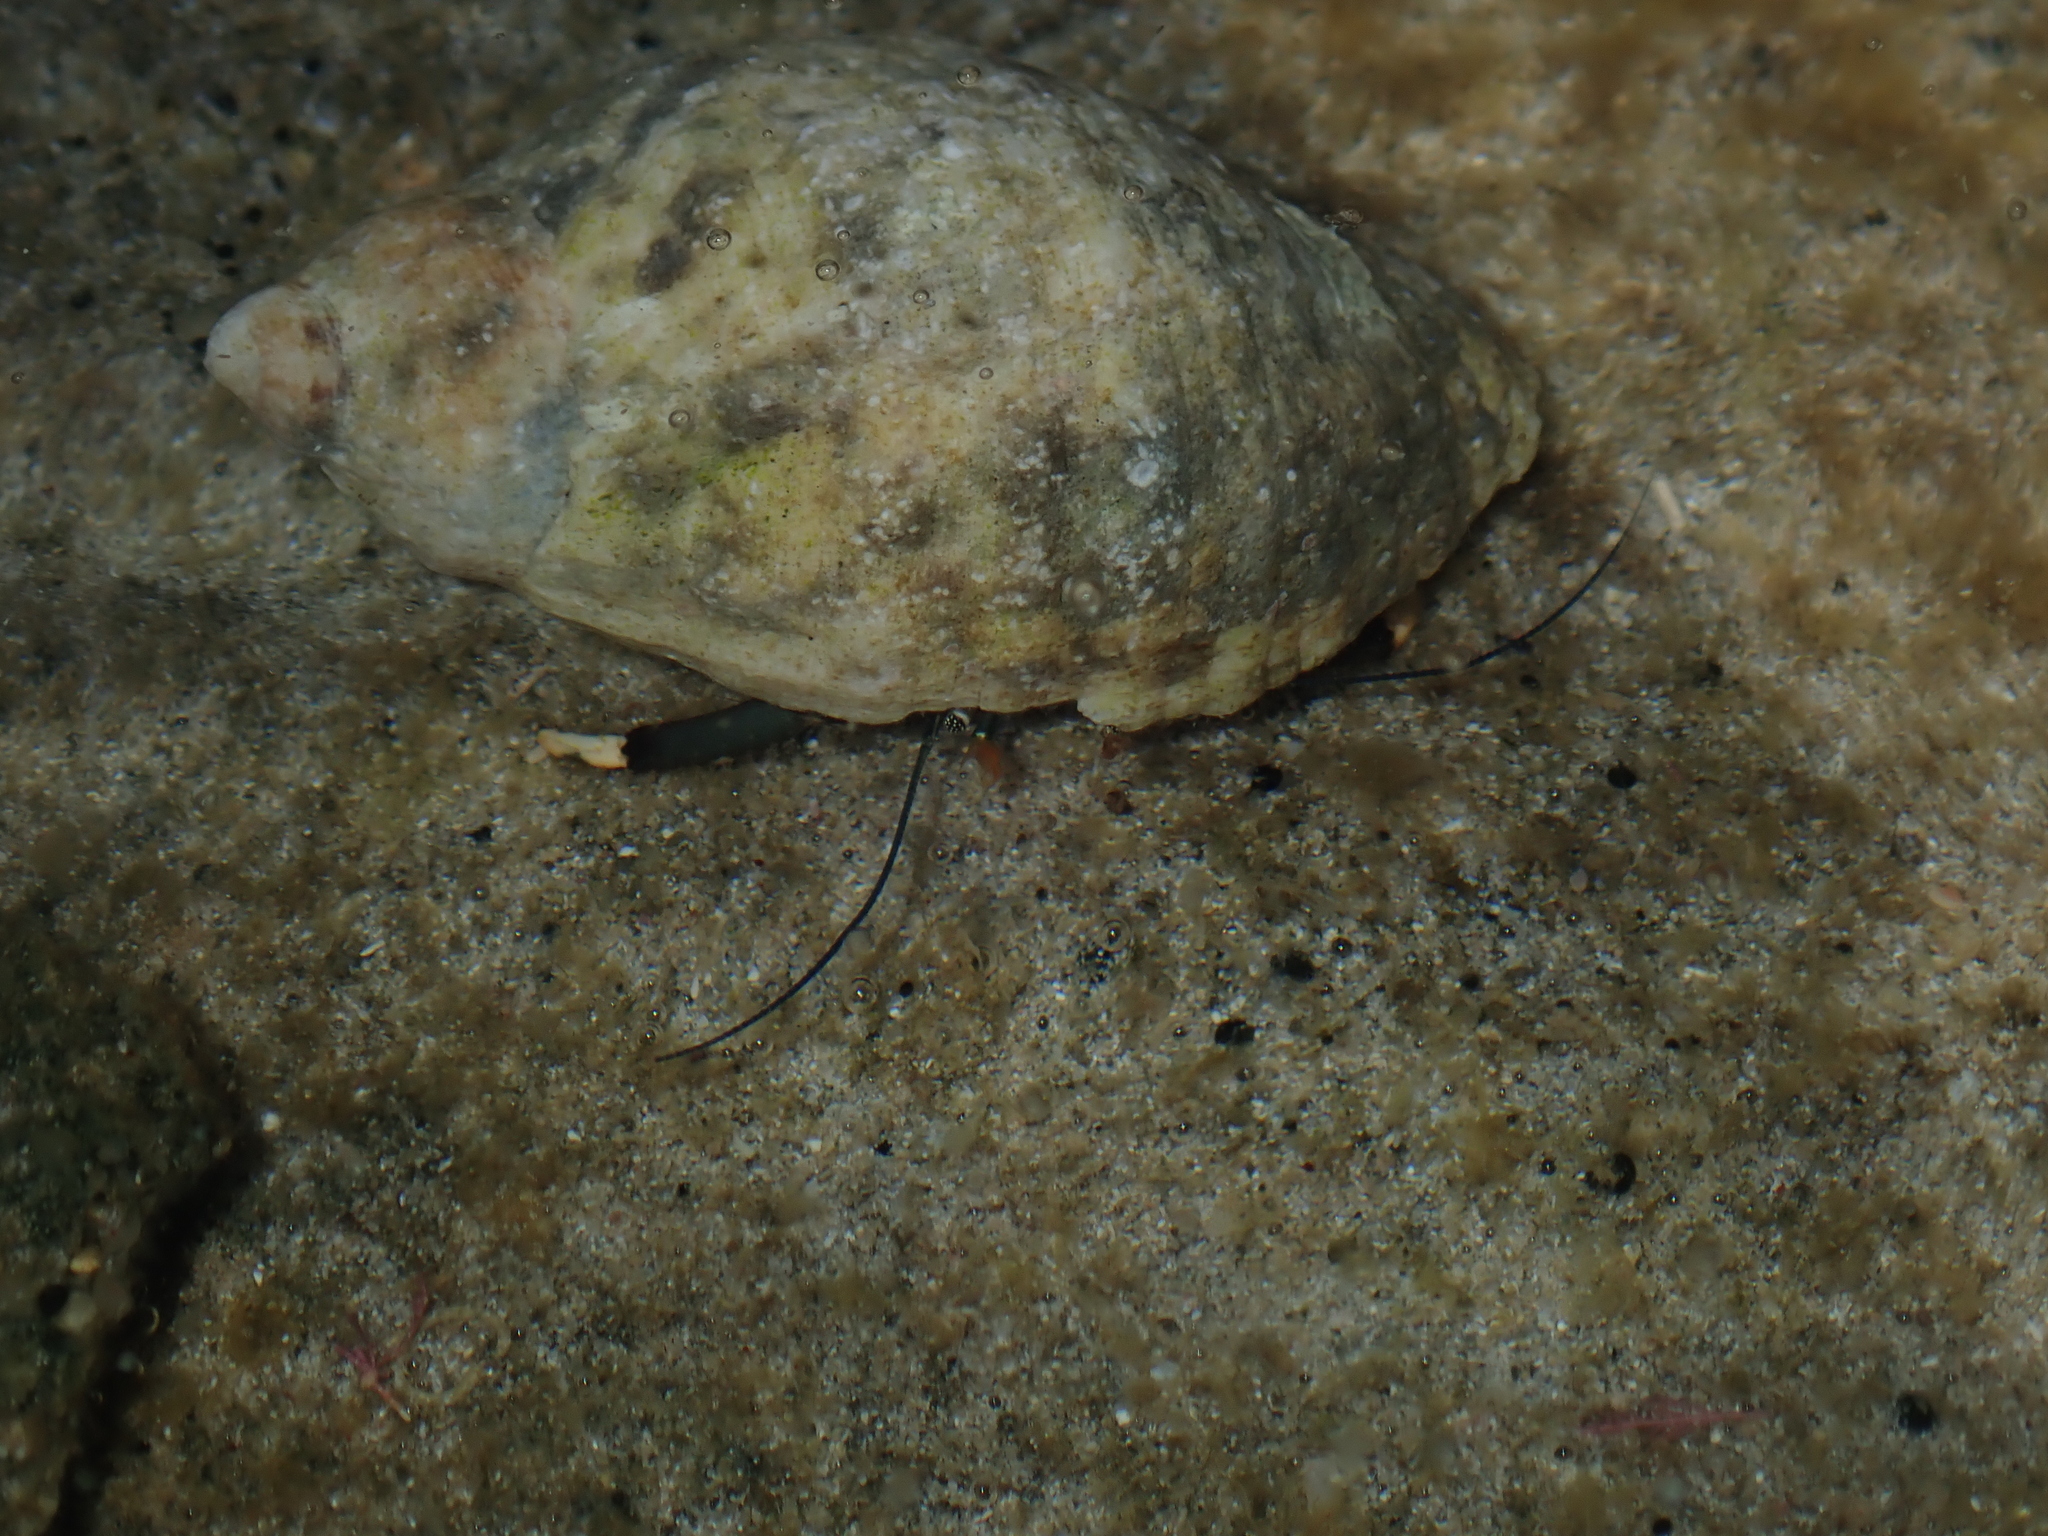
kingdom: Animalia
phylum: Arthropoda
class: Malacostraca
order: Decapoda
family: Diogenidae
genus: Clibanarius
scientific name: Clibanarius virescens
